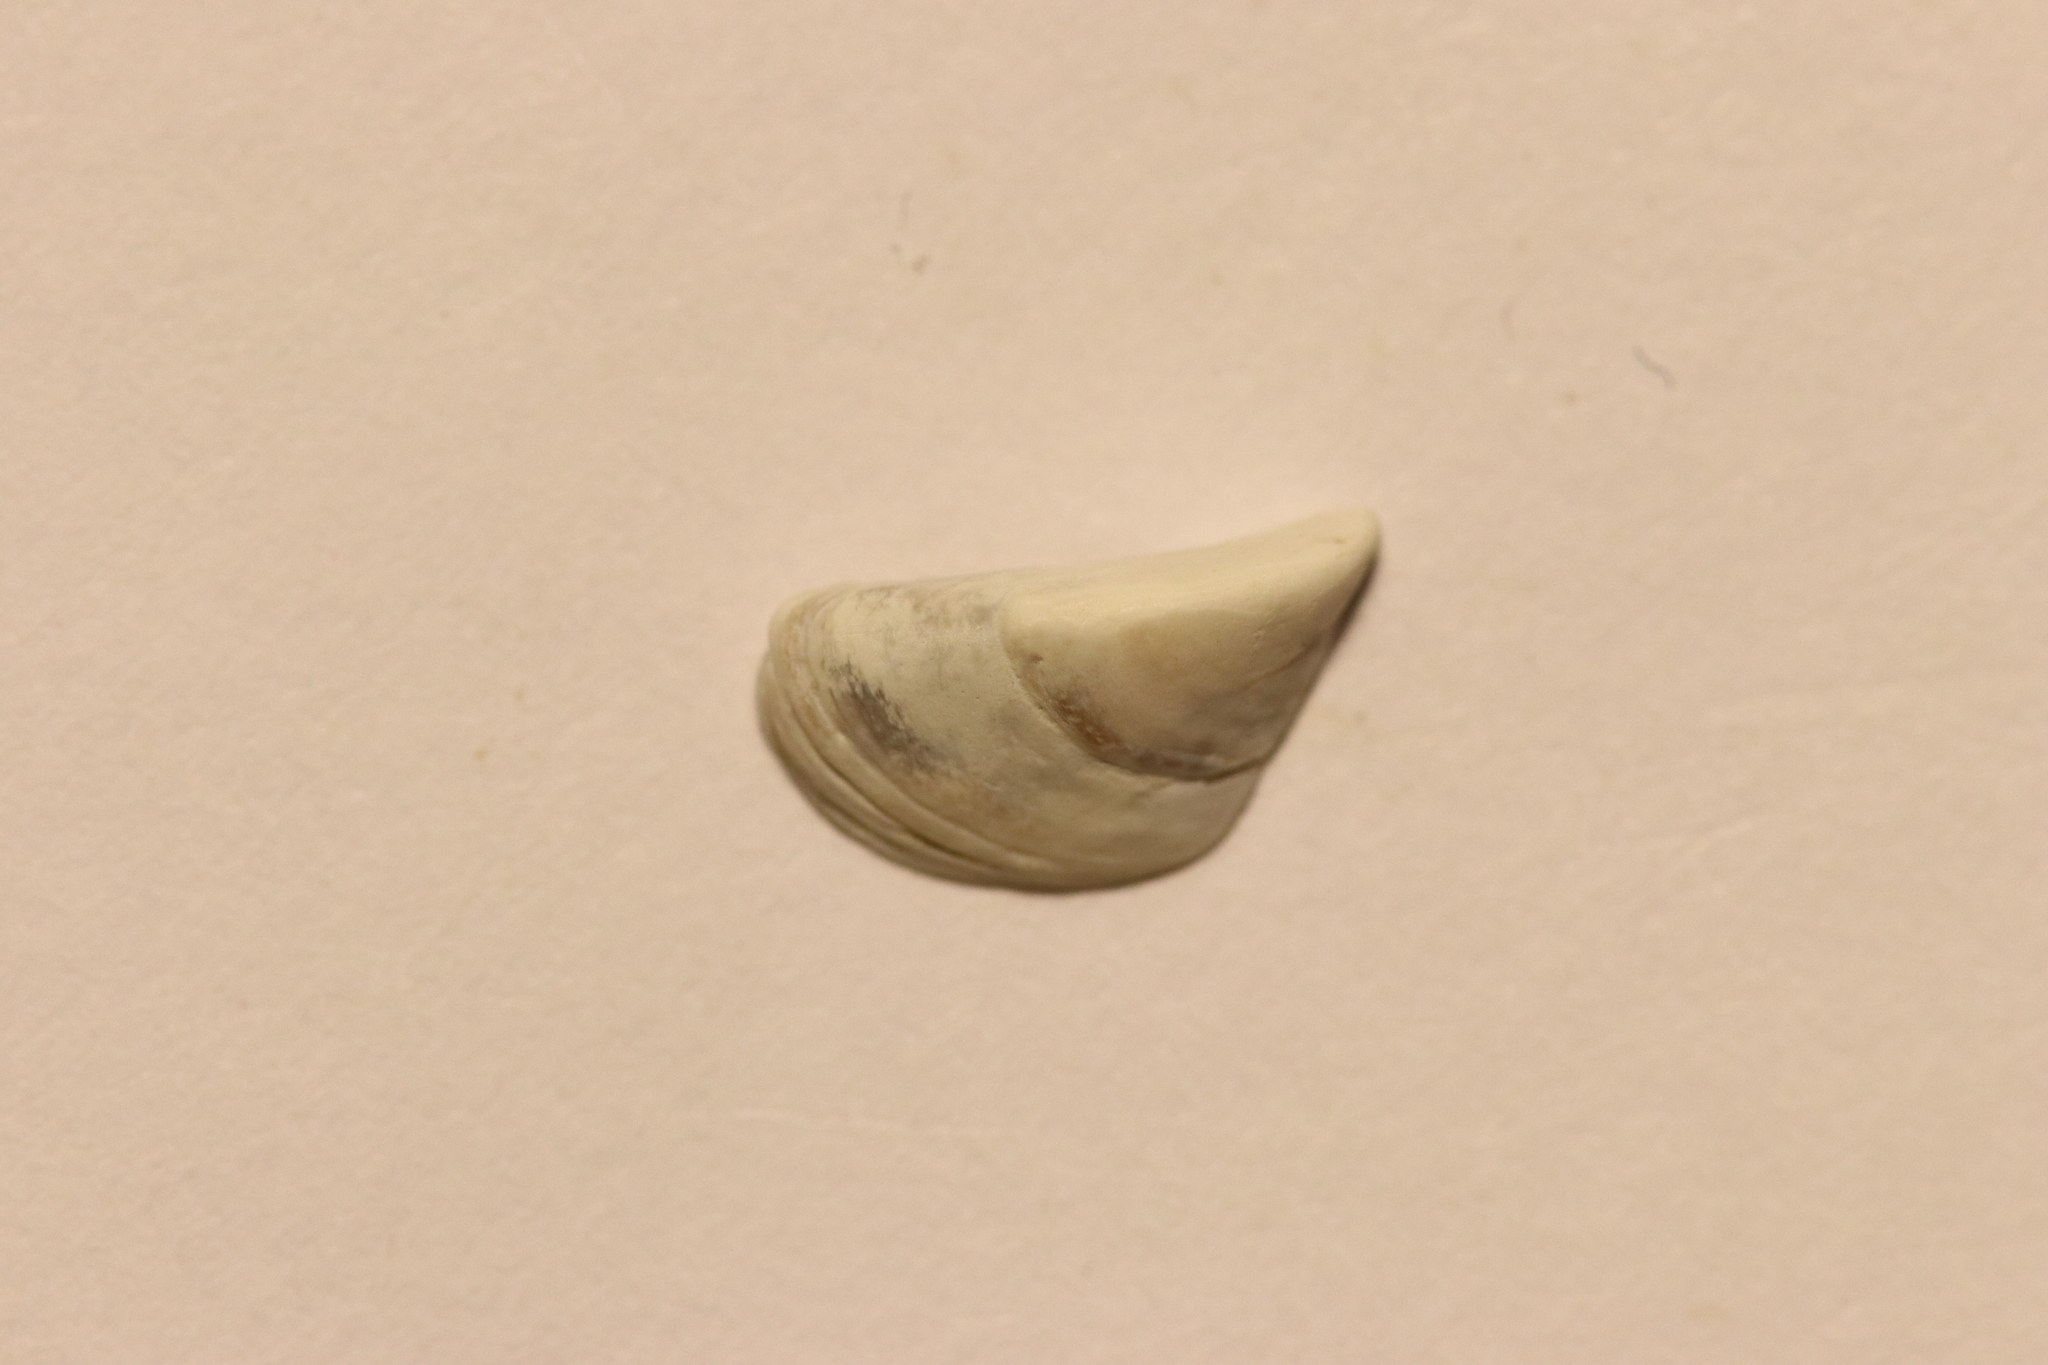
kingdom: Animalia
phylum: Mollusca
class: Bivalvia
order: Myida
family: Dreissenidae
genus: Dreissena
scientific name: Dreissena polymorpha
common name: Zebra mussel
